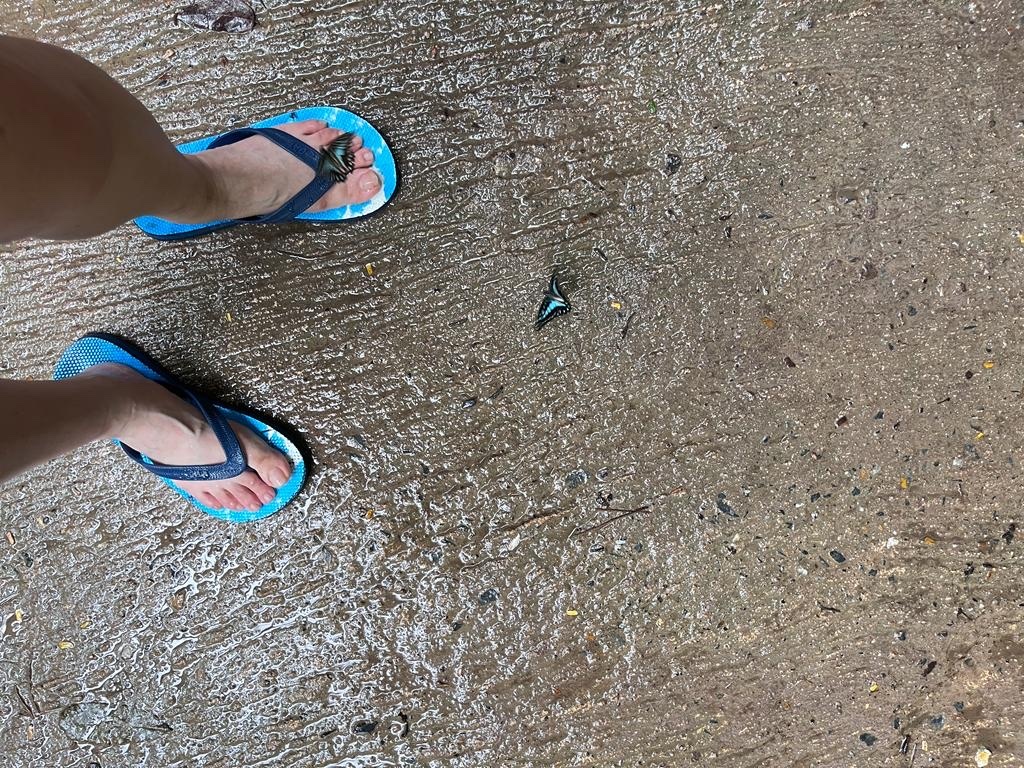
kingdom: Animalia
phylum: Arthropoda
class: Insecta
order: Lepidoptera
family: Papilionidae
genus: Graphium
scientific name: Graphium doson
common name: Common jay
